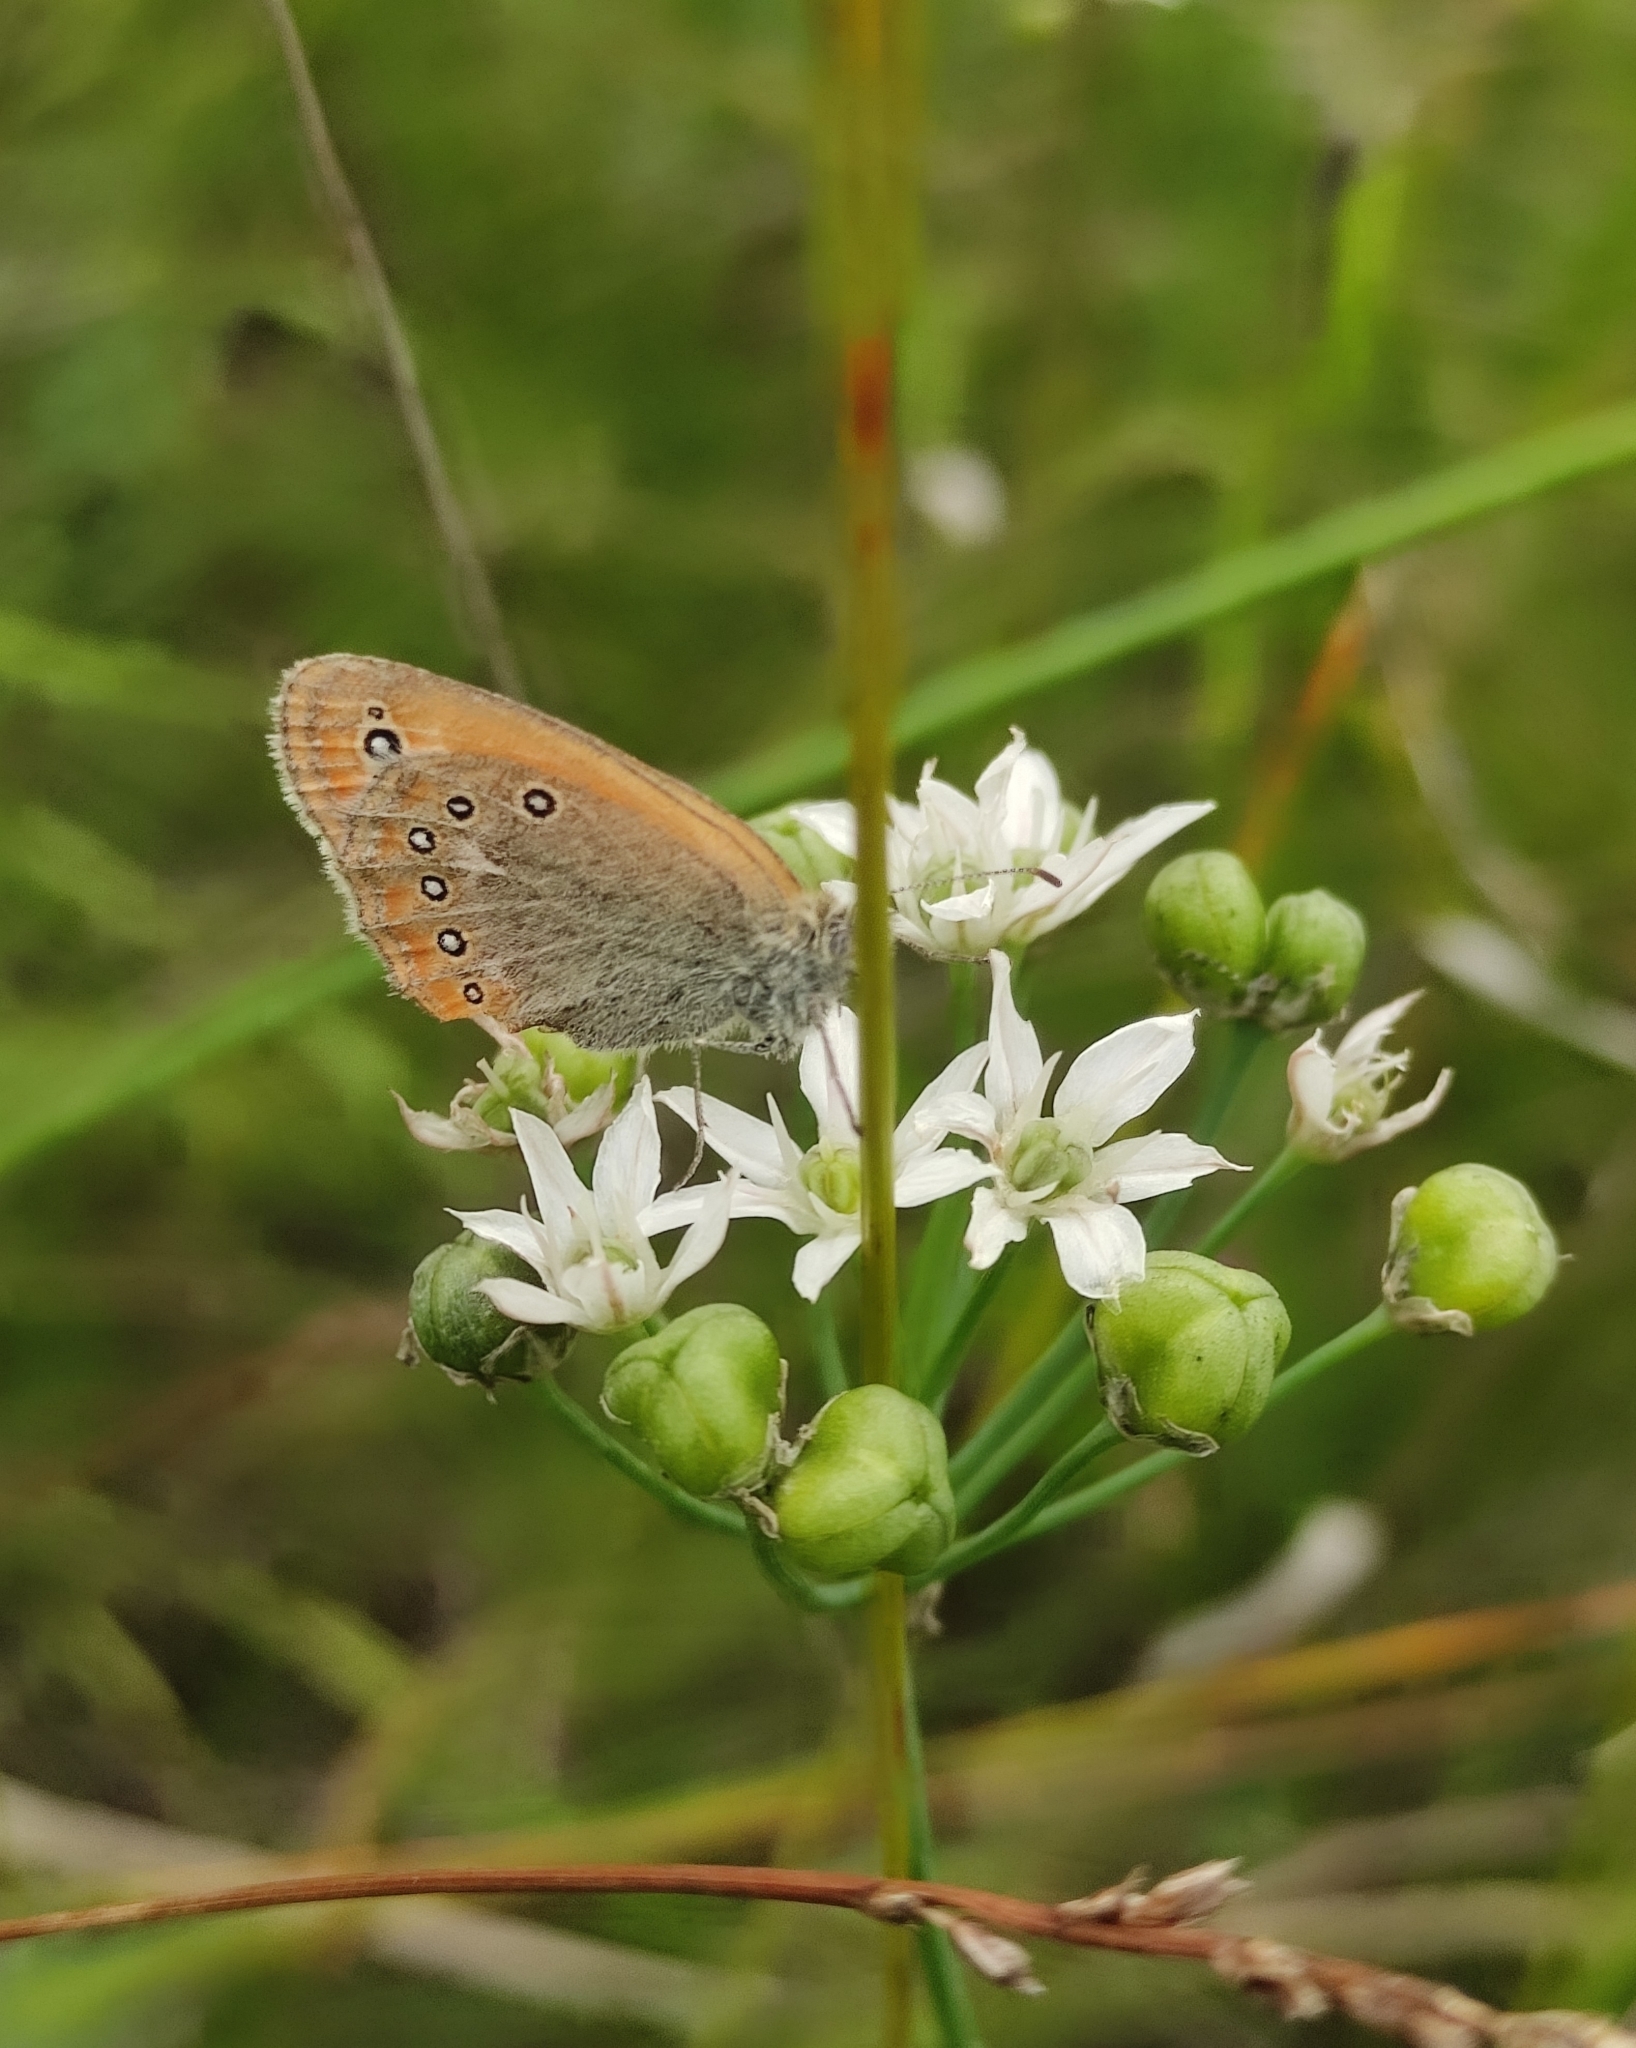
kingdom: Animalia
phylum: Arthropoda
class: Insecta
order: Lepidoptera
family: Nymphalidae
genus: Coenonympha
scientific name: Coenonympha amaryllis
